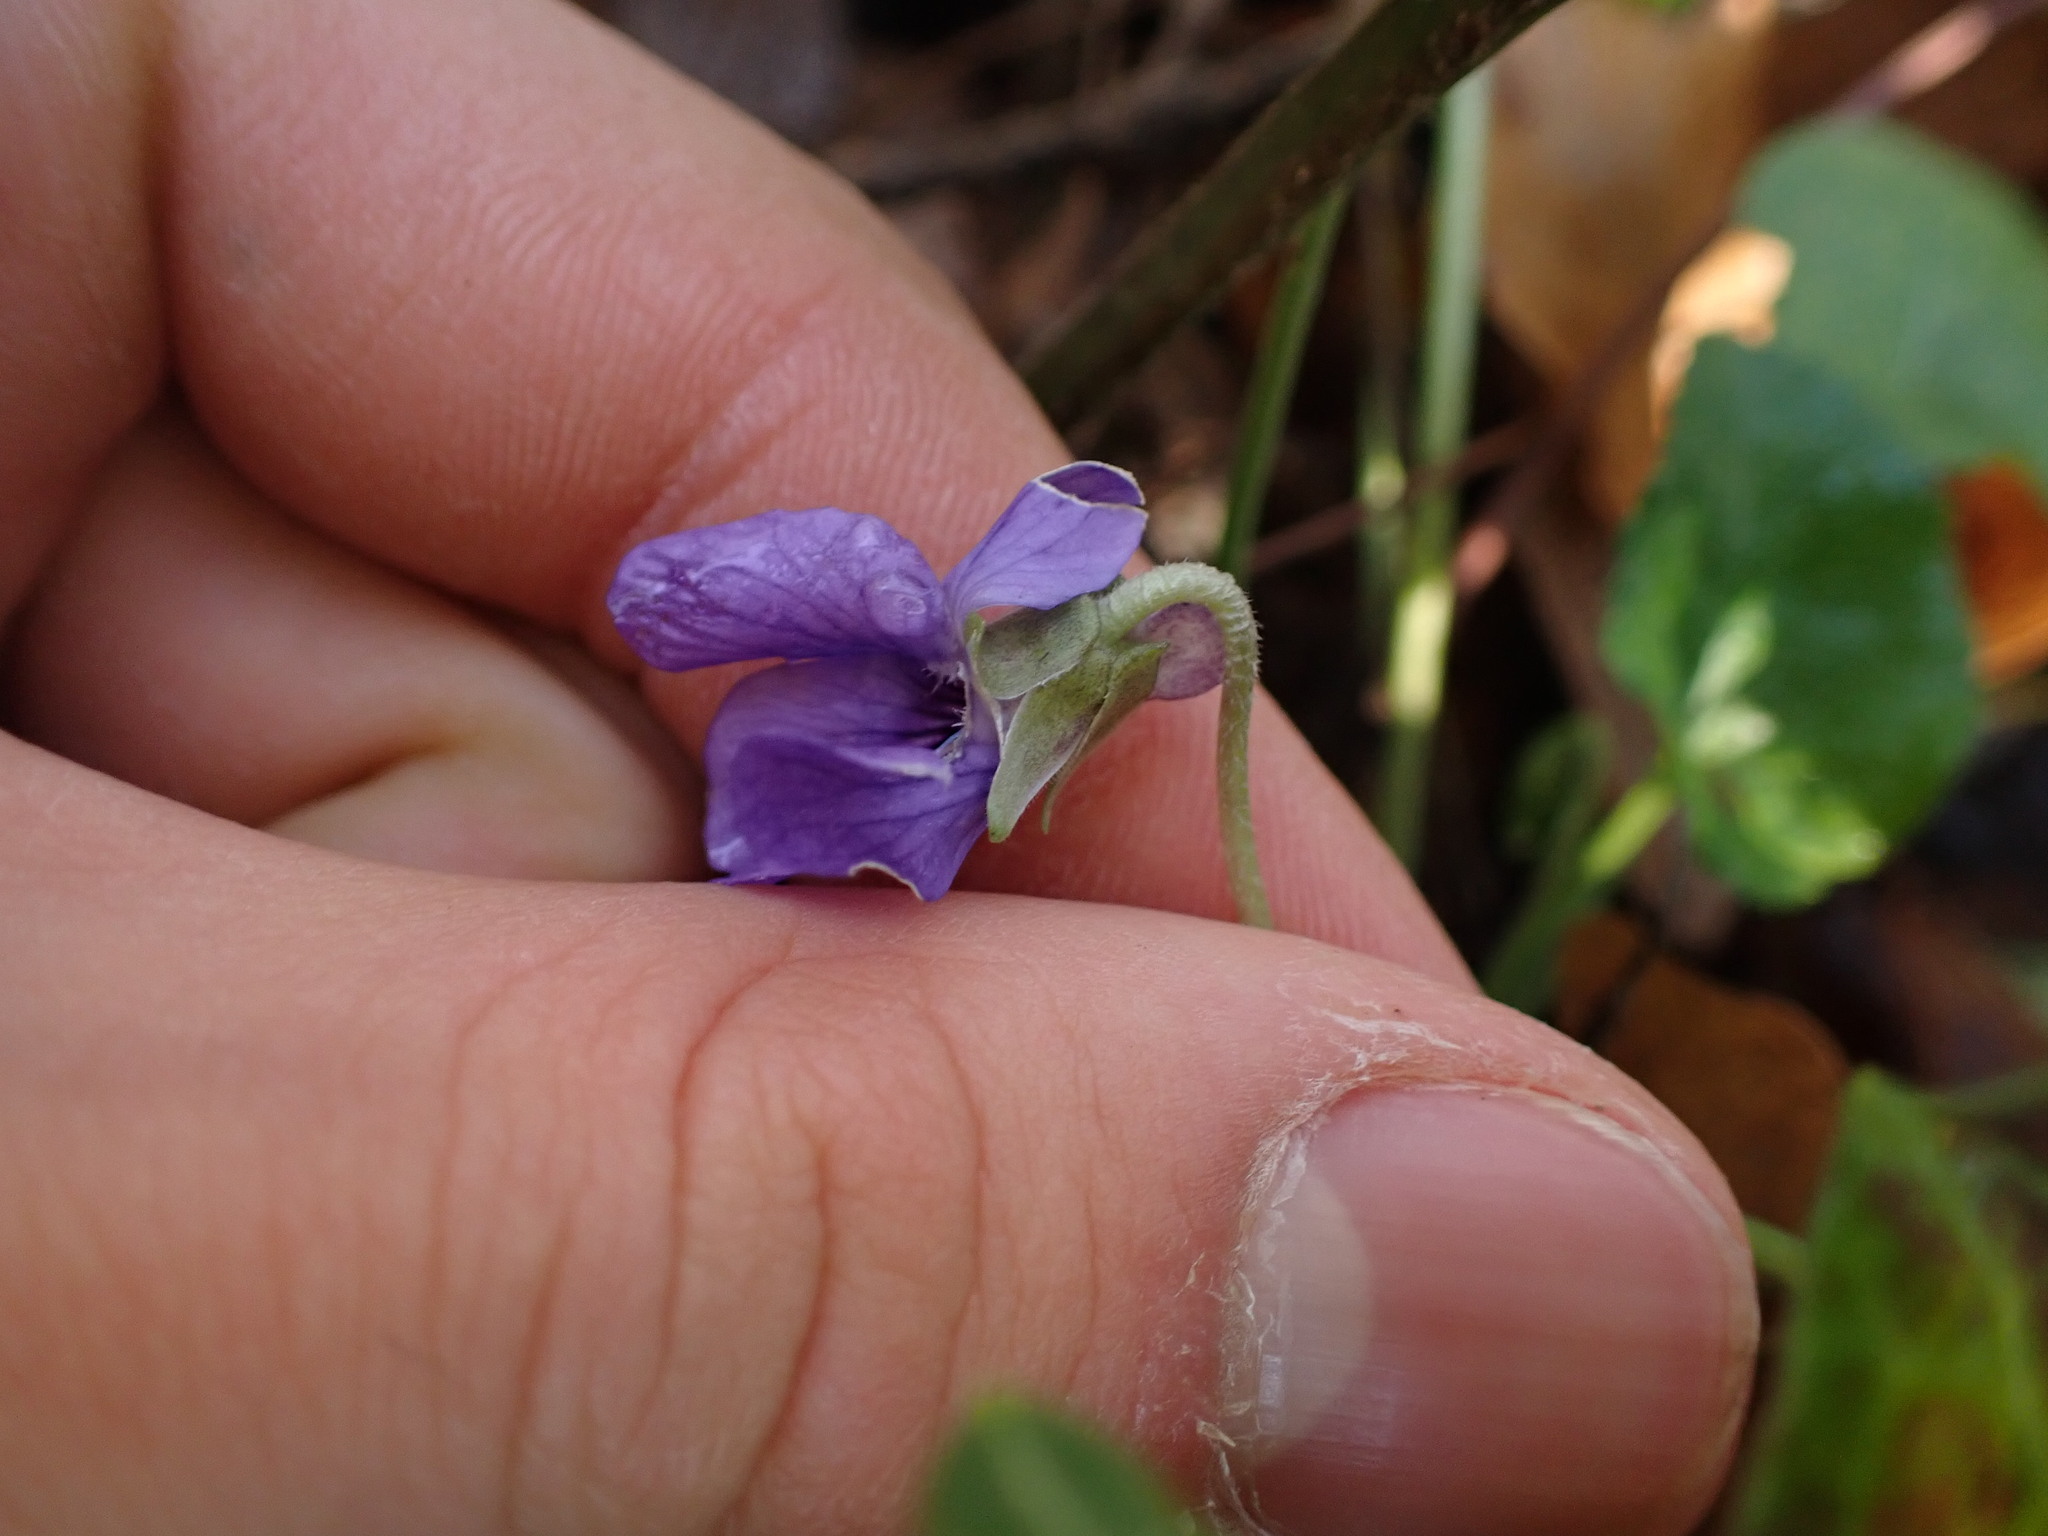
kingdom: Plantae
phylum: Tracheophyta
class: Magnoliopsida
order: Malpighiales
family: Violaceae
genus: Viola
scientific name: Viola odorata
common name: Sweet violet
